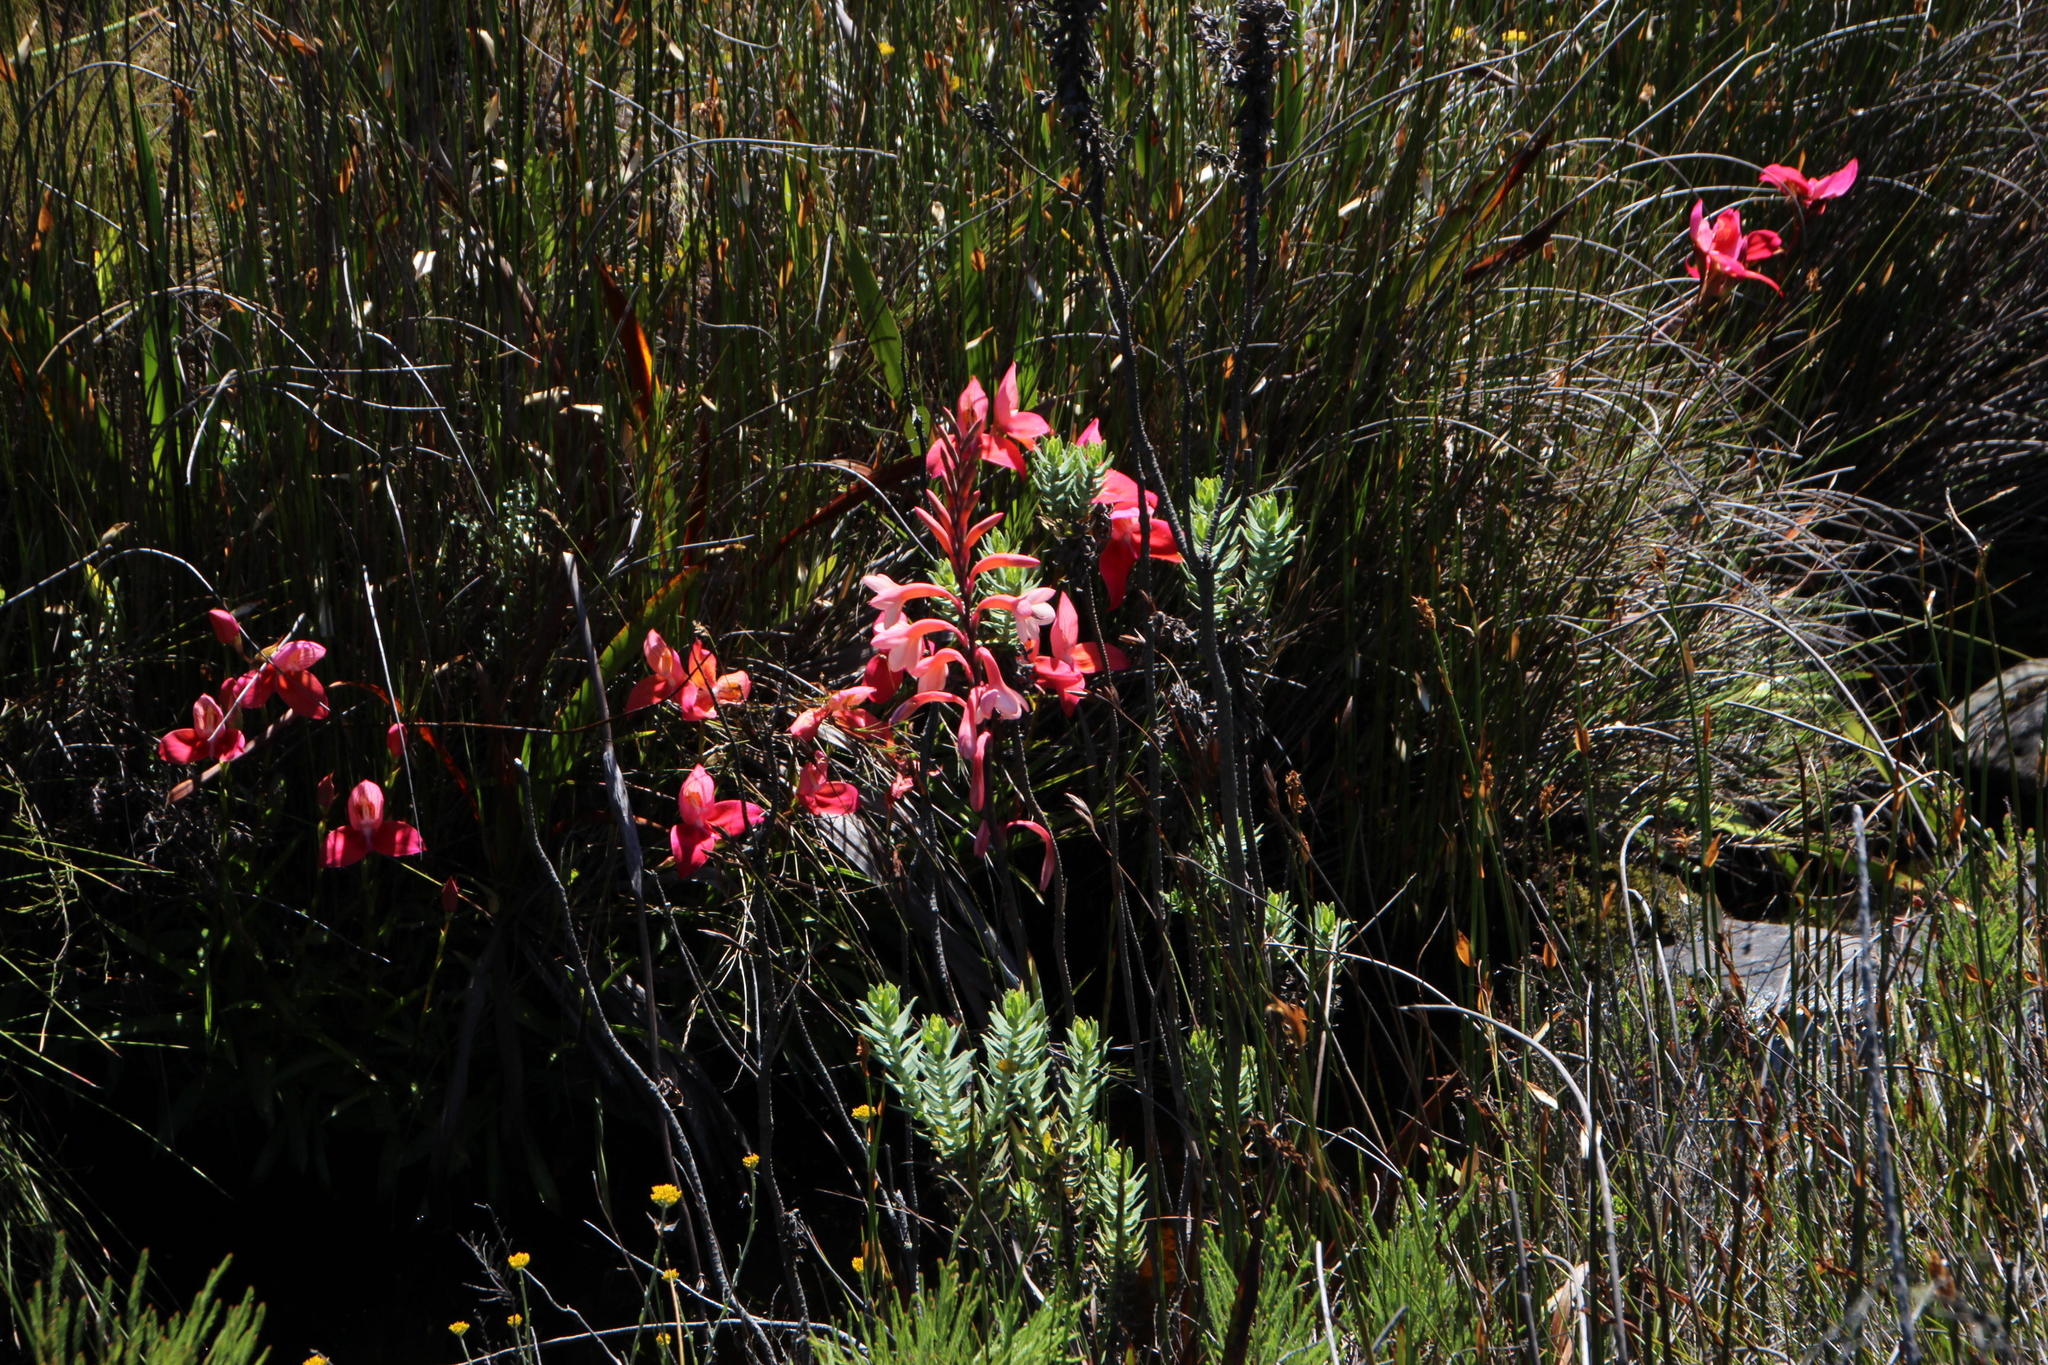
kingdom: Plantae
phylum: Tracheophyta
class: Liliopsida
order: Asparagales
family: Orchidaceae
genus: Disa
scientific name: Disa uniflora
